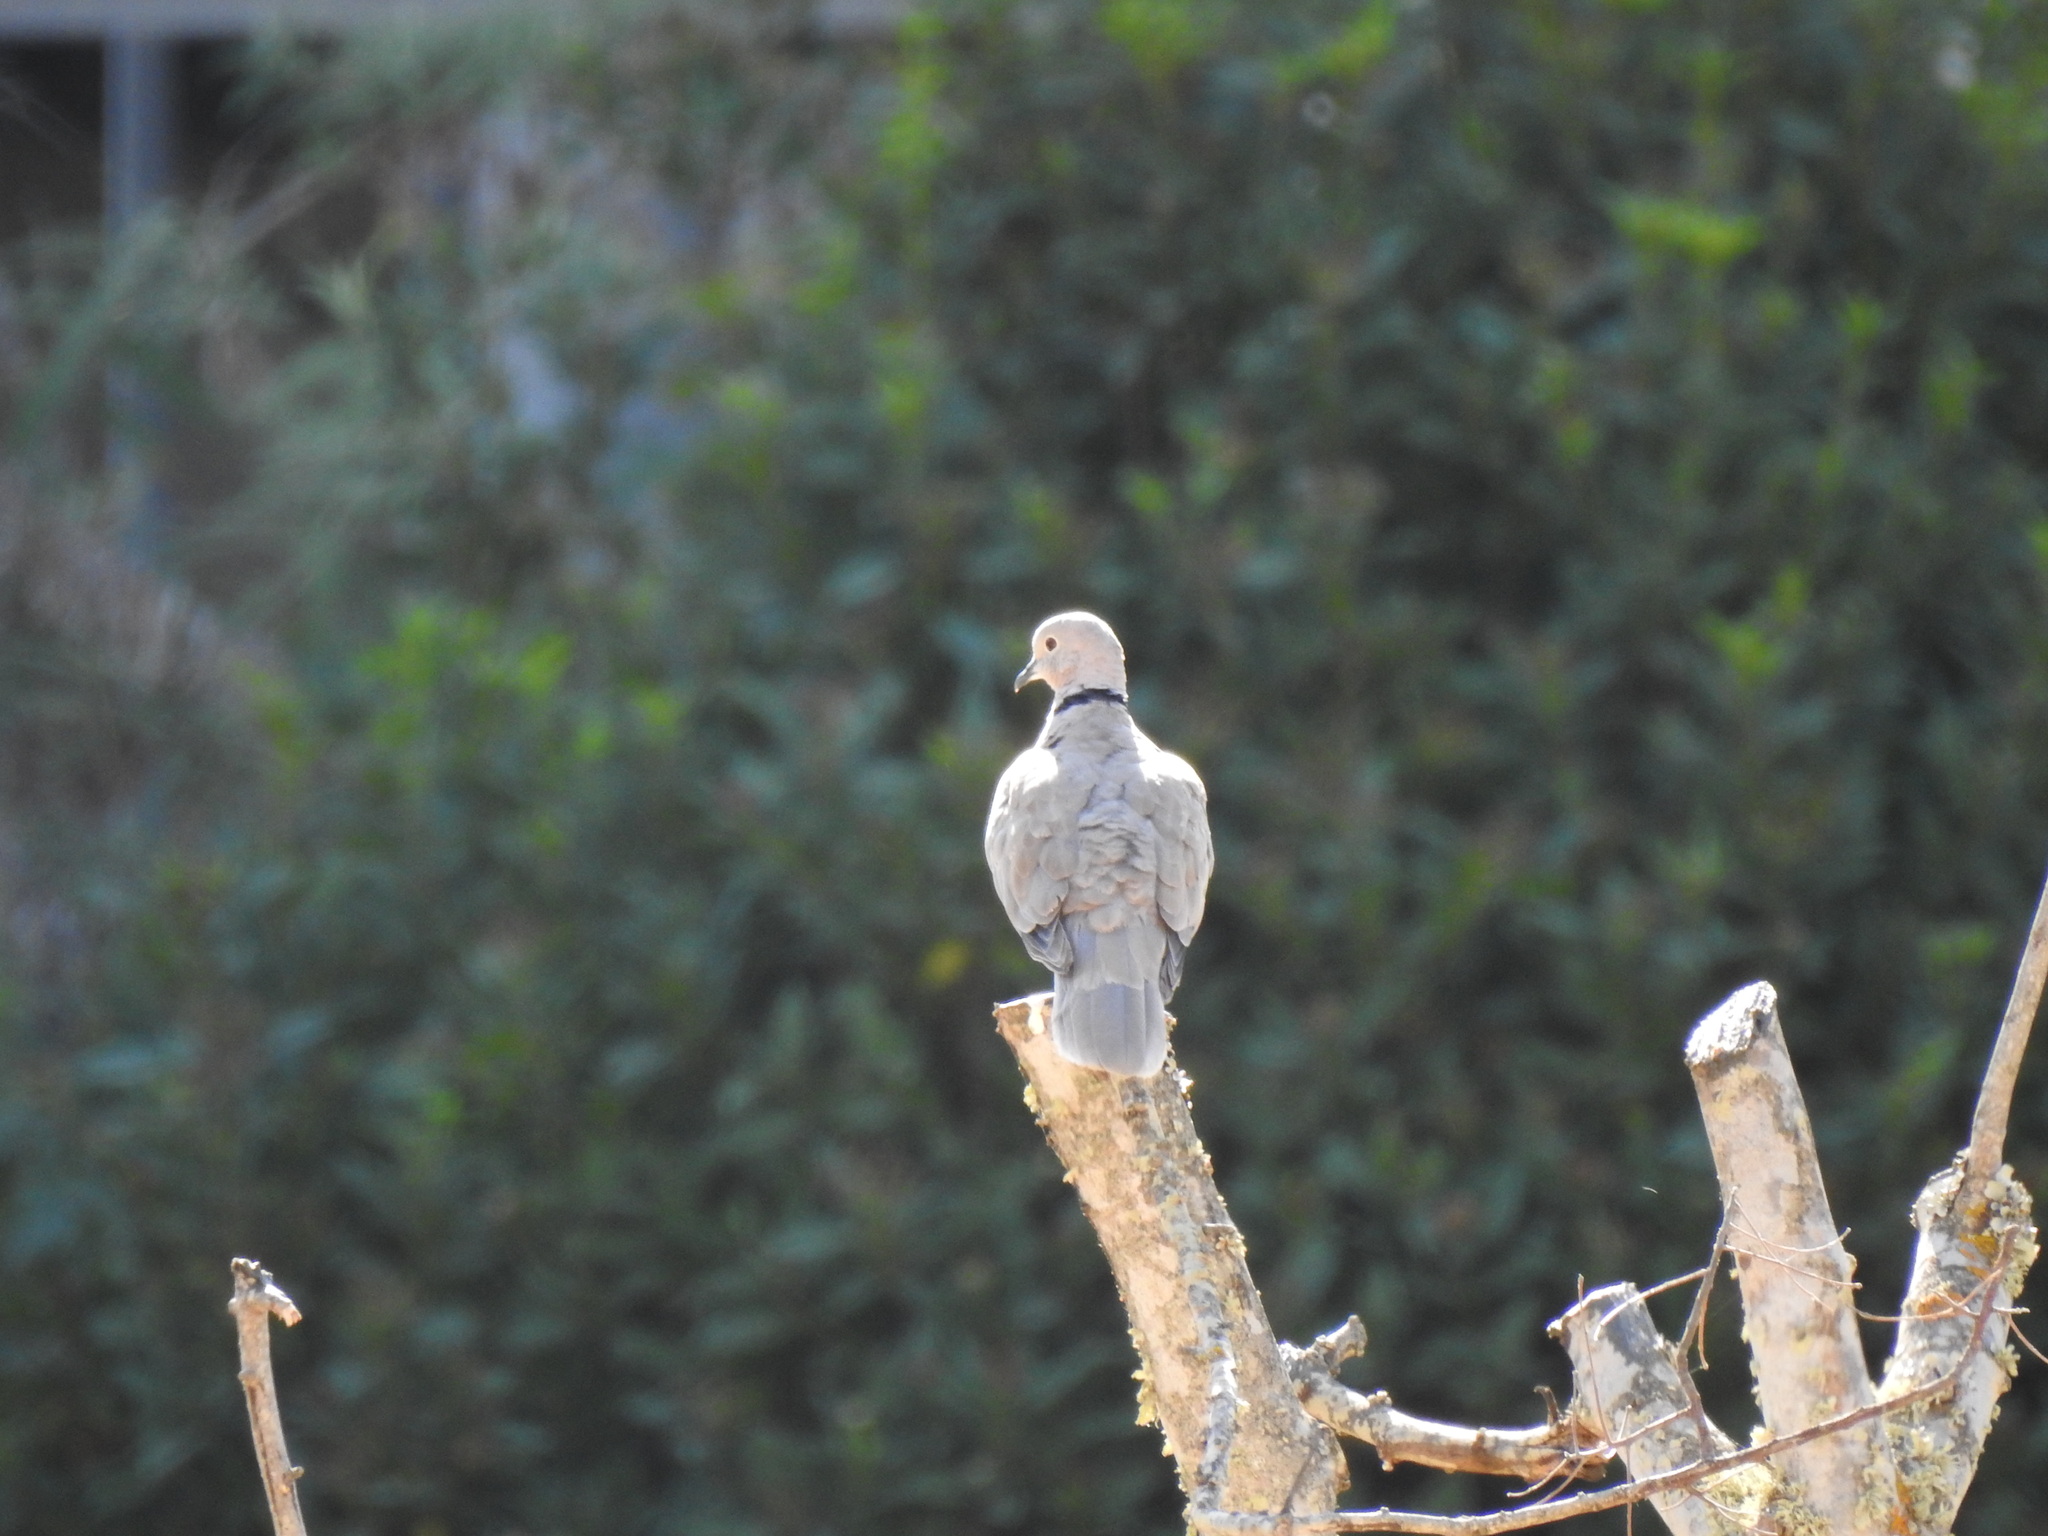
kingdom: Animalia
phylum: Chordata
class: Aves
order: Columbiformes
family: Columbidae
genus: Streptopelia
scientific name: Streptopelia decaocto
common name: Eurasian collared dove
